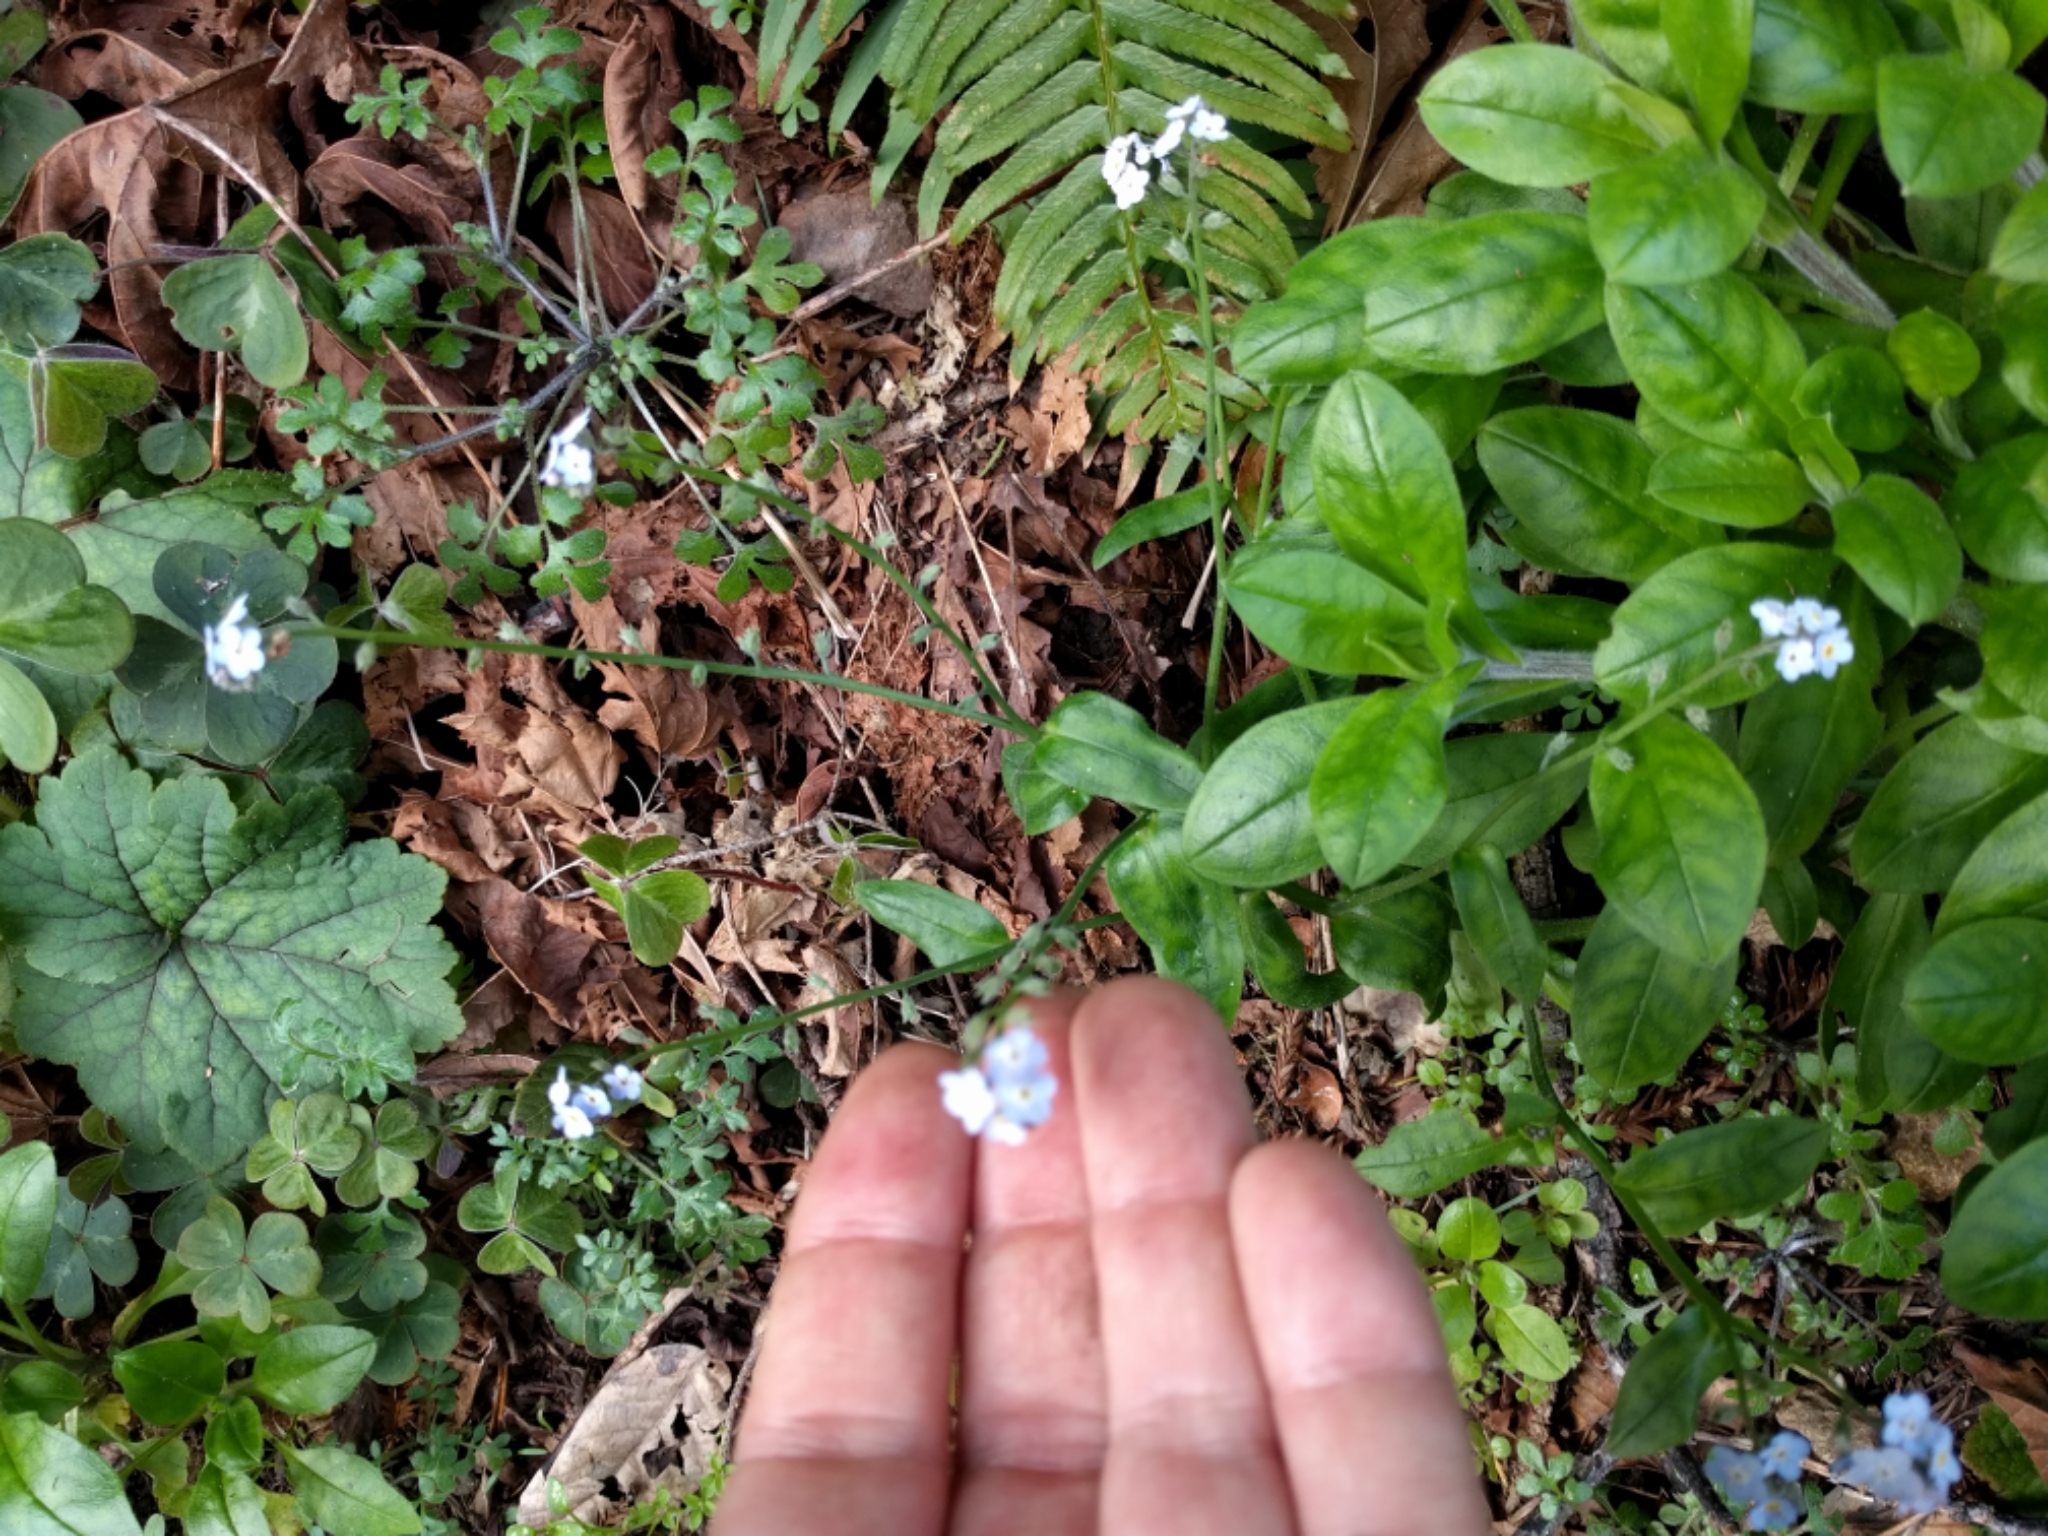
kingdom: Plantae
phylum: Tracheophyta
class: Magnoliopsida
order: Boraginales
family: Boraginaceae
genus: Myosotis
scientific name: Myosotis latifolia
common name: Broadleaf forget-me-not
